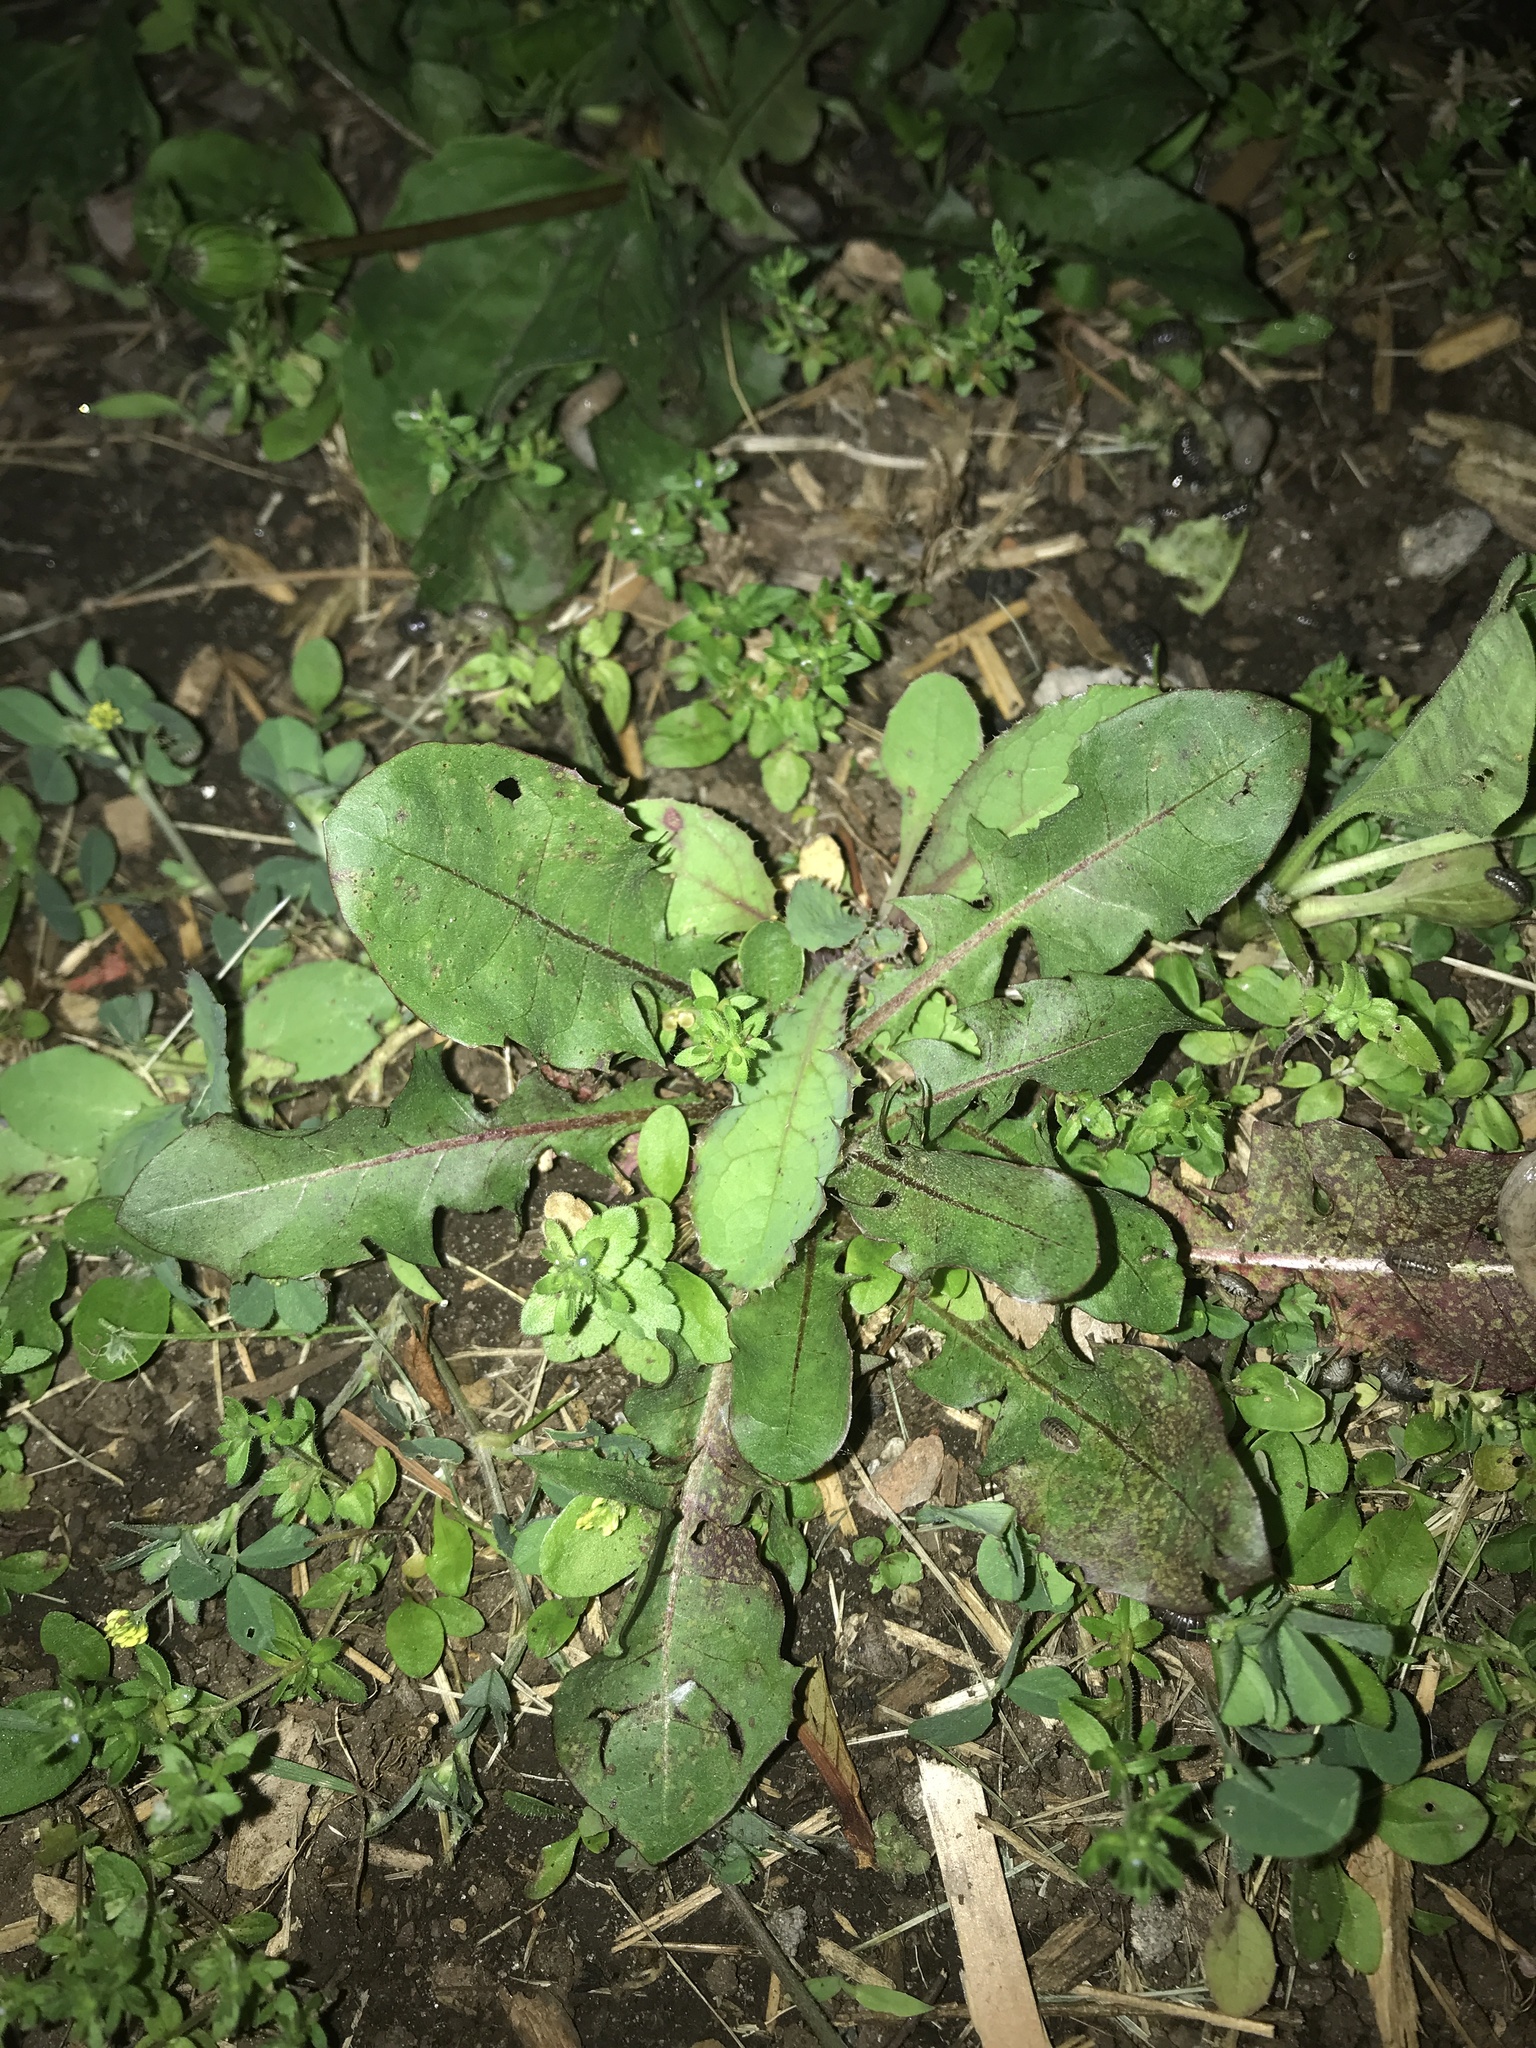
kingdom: Plantae
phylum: Tracheophyta
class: Magnoliopsida
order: Asterales
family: Asteraceae
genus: Taraxacum
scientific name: Taraxacum officinale
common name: Common dandelion
